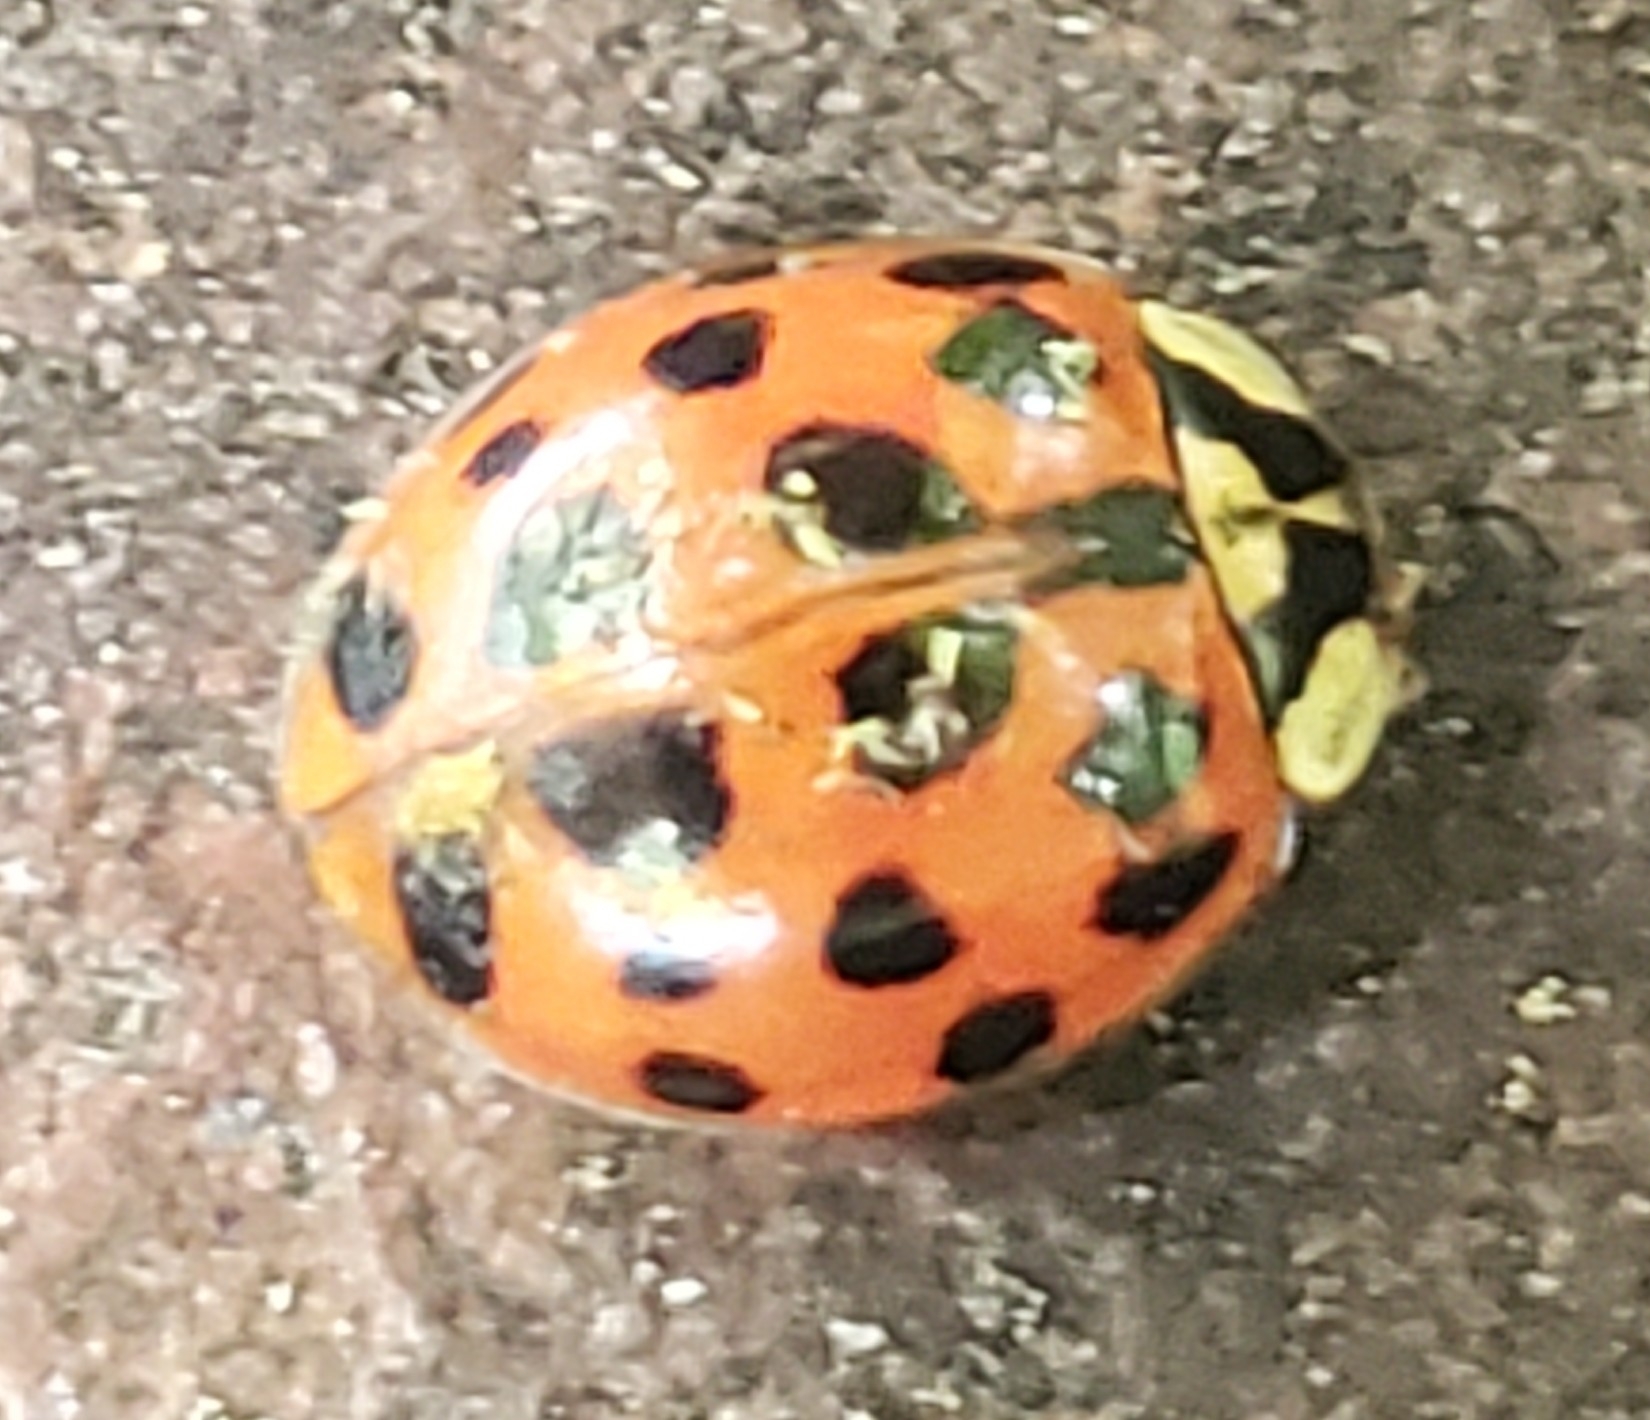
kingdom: Animalia
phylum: Arthropoda
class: Insecta
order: Coleoptera
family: Coccinellidae
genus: Harmonia
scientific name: Harmonia axyridis
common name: Harlequin ladybird
